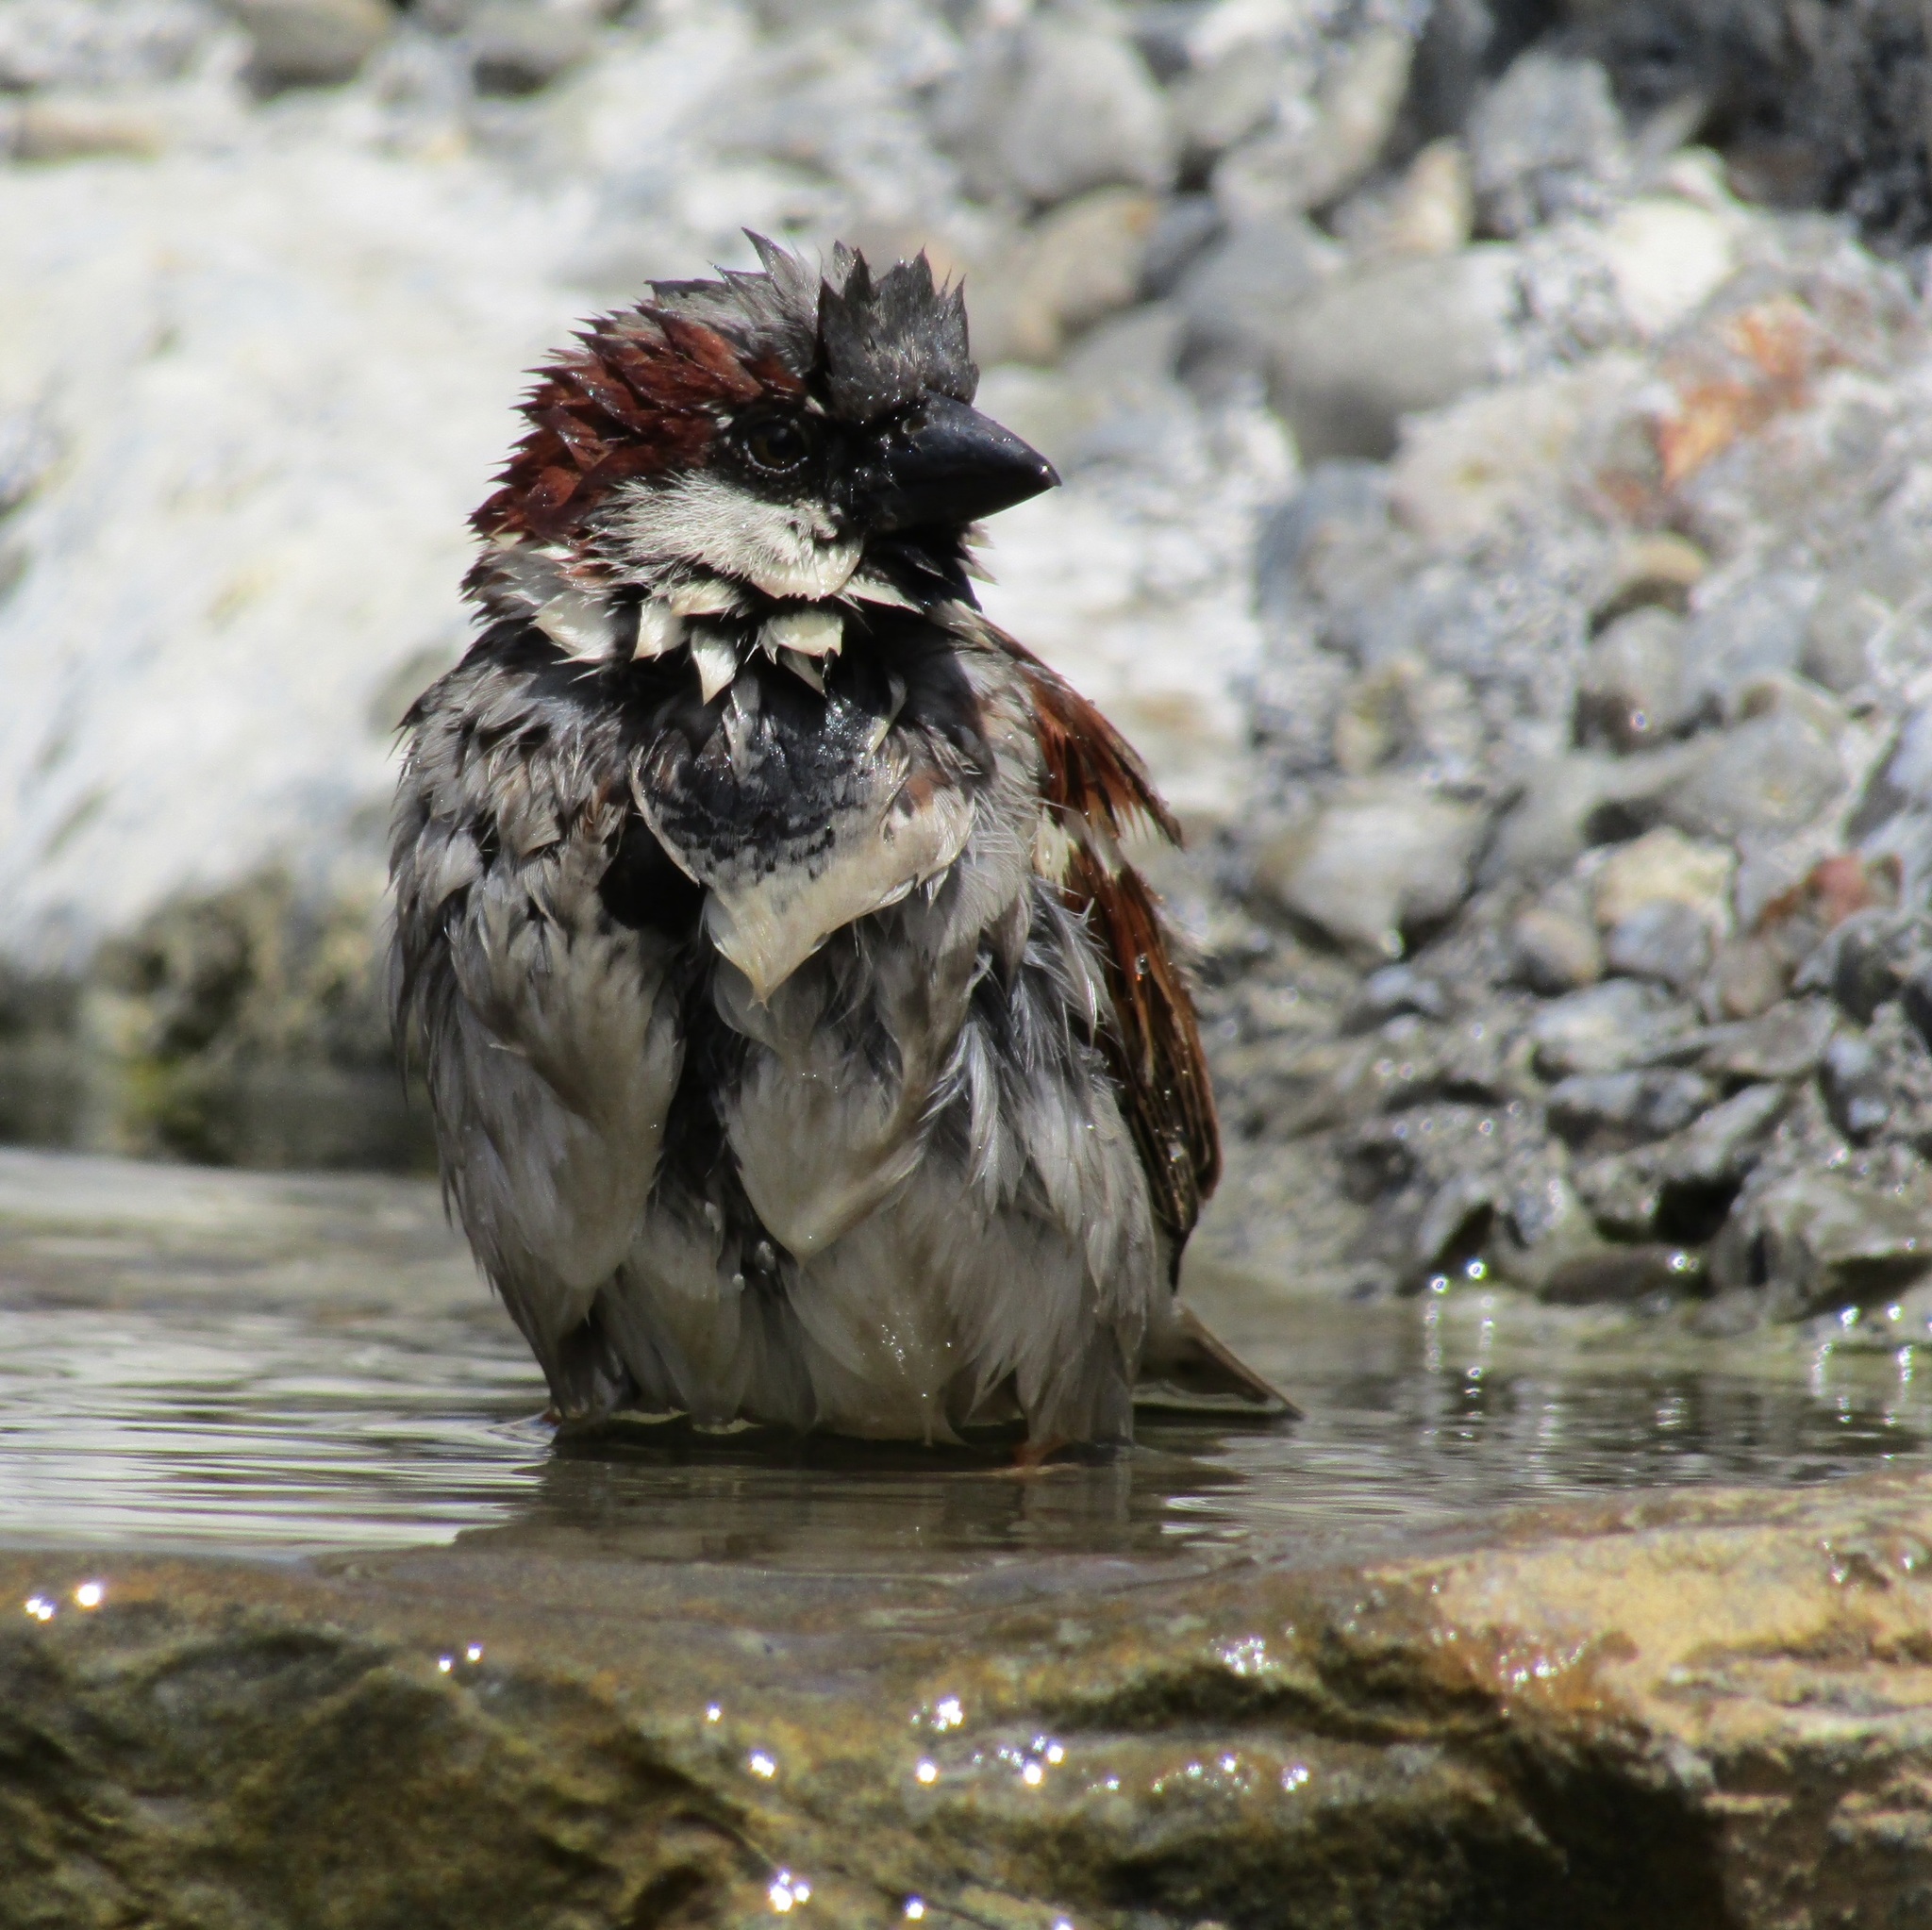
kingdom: Animalia
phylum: Chordata
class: Aves
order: Passeriformes
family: Passeridae
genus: Passer
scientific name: Passer domesticus
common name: House sparrow
